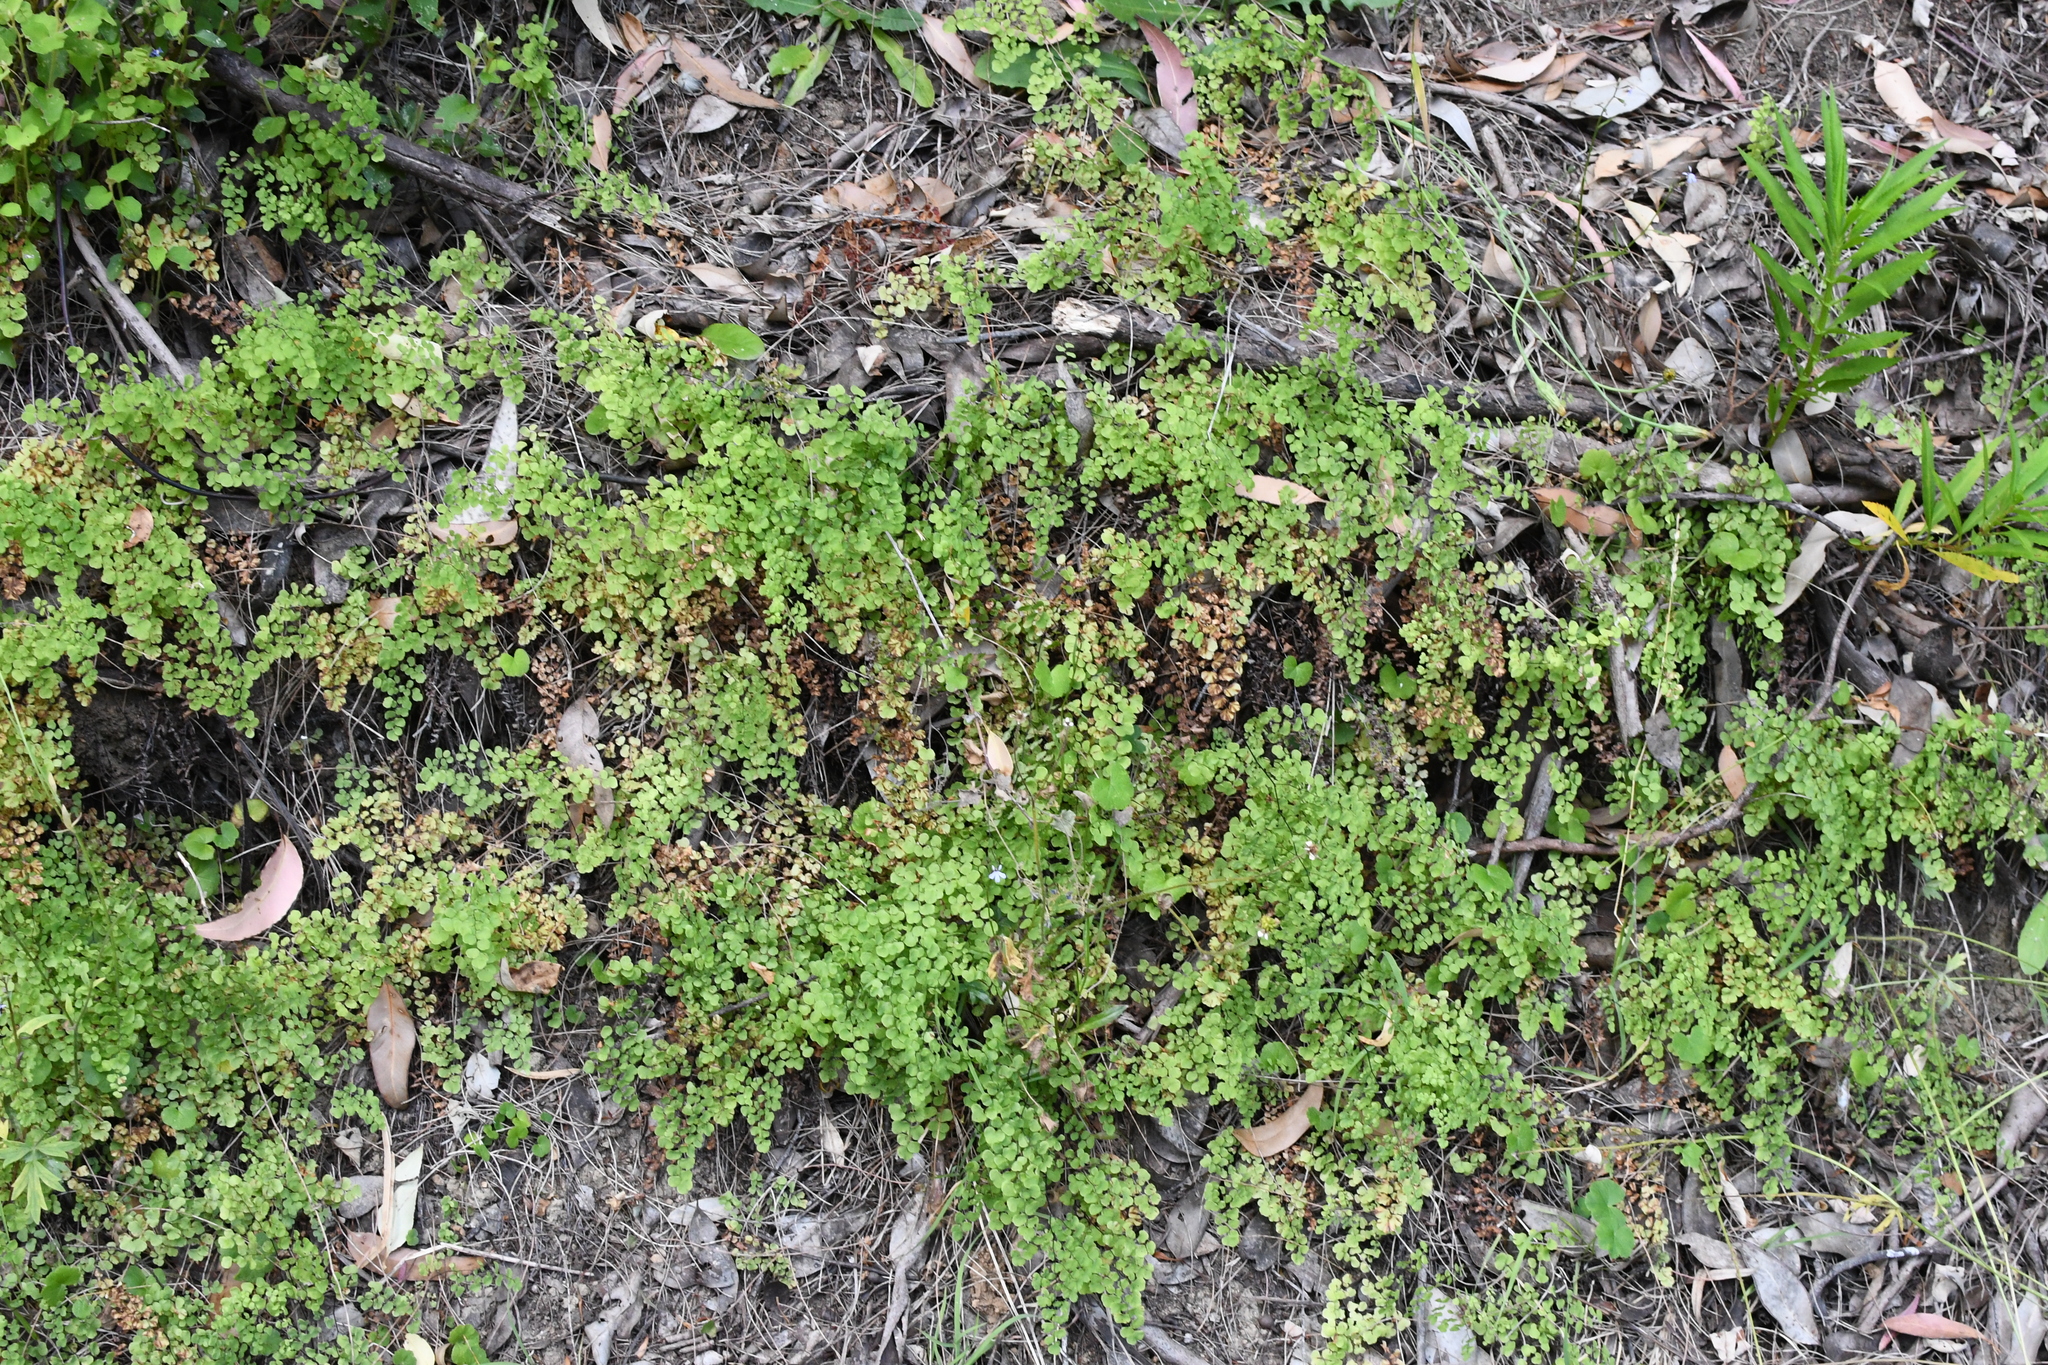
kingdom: Plantae
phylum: Tracheophyta
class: Polypodiopsida
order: Polypodiales
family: Pteridaceae
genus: Adiantum
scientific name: Adiantum aethiopicum
